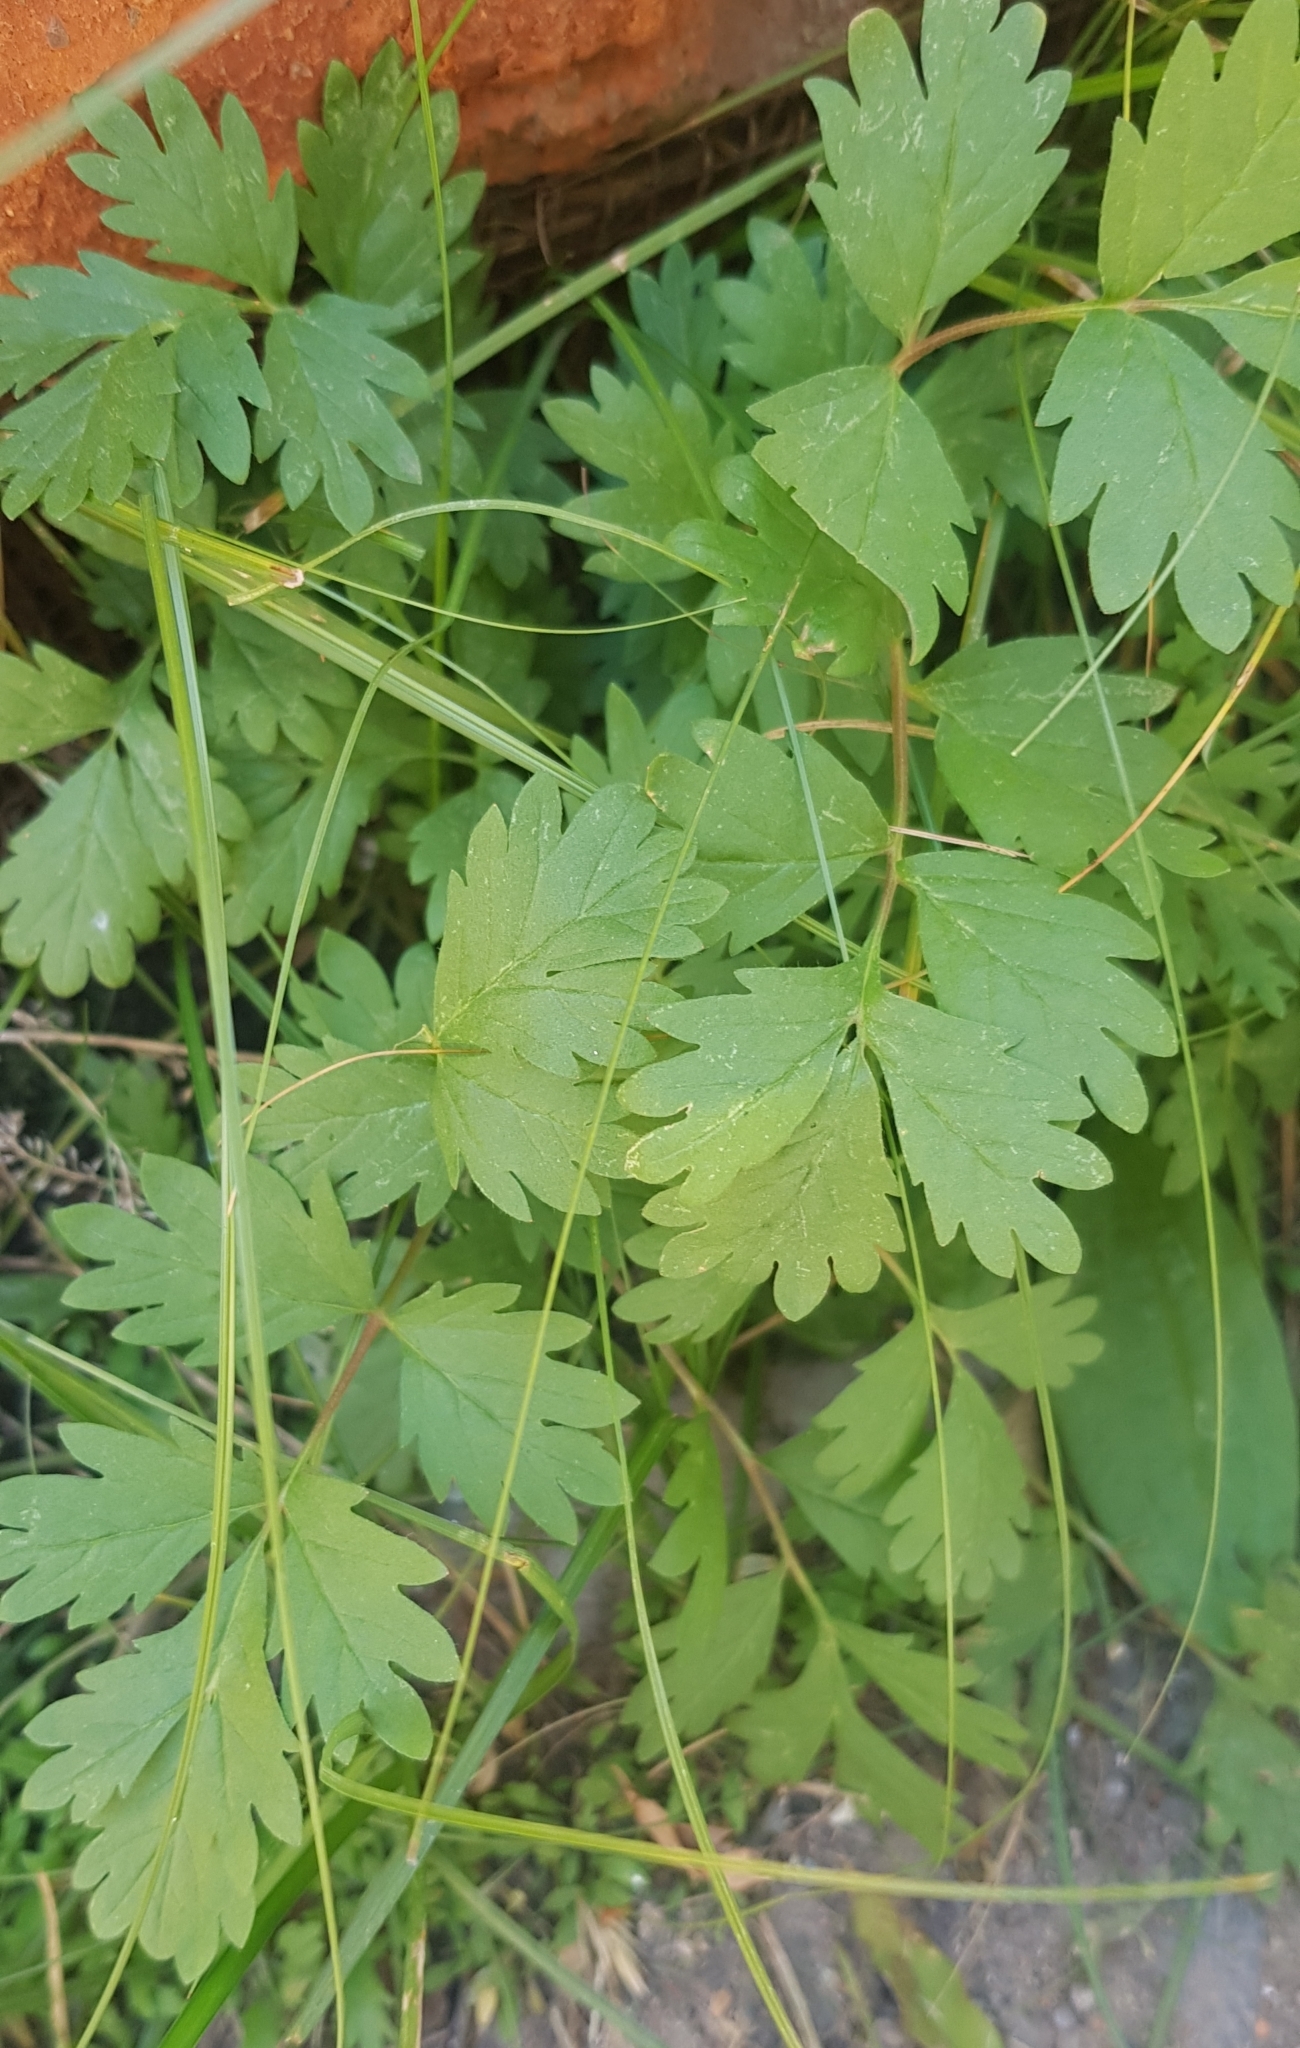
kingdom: Plantae
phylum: Tracheophyta
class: Magnoliopsida
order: Rosales
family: Rosaceae
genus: Potentilla
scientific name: Potentilla supina
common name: Prostrate cinquefoil
